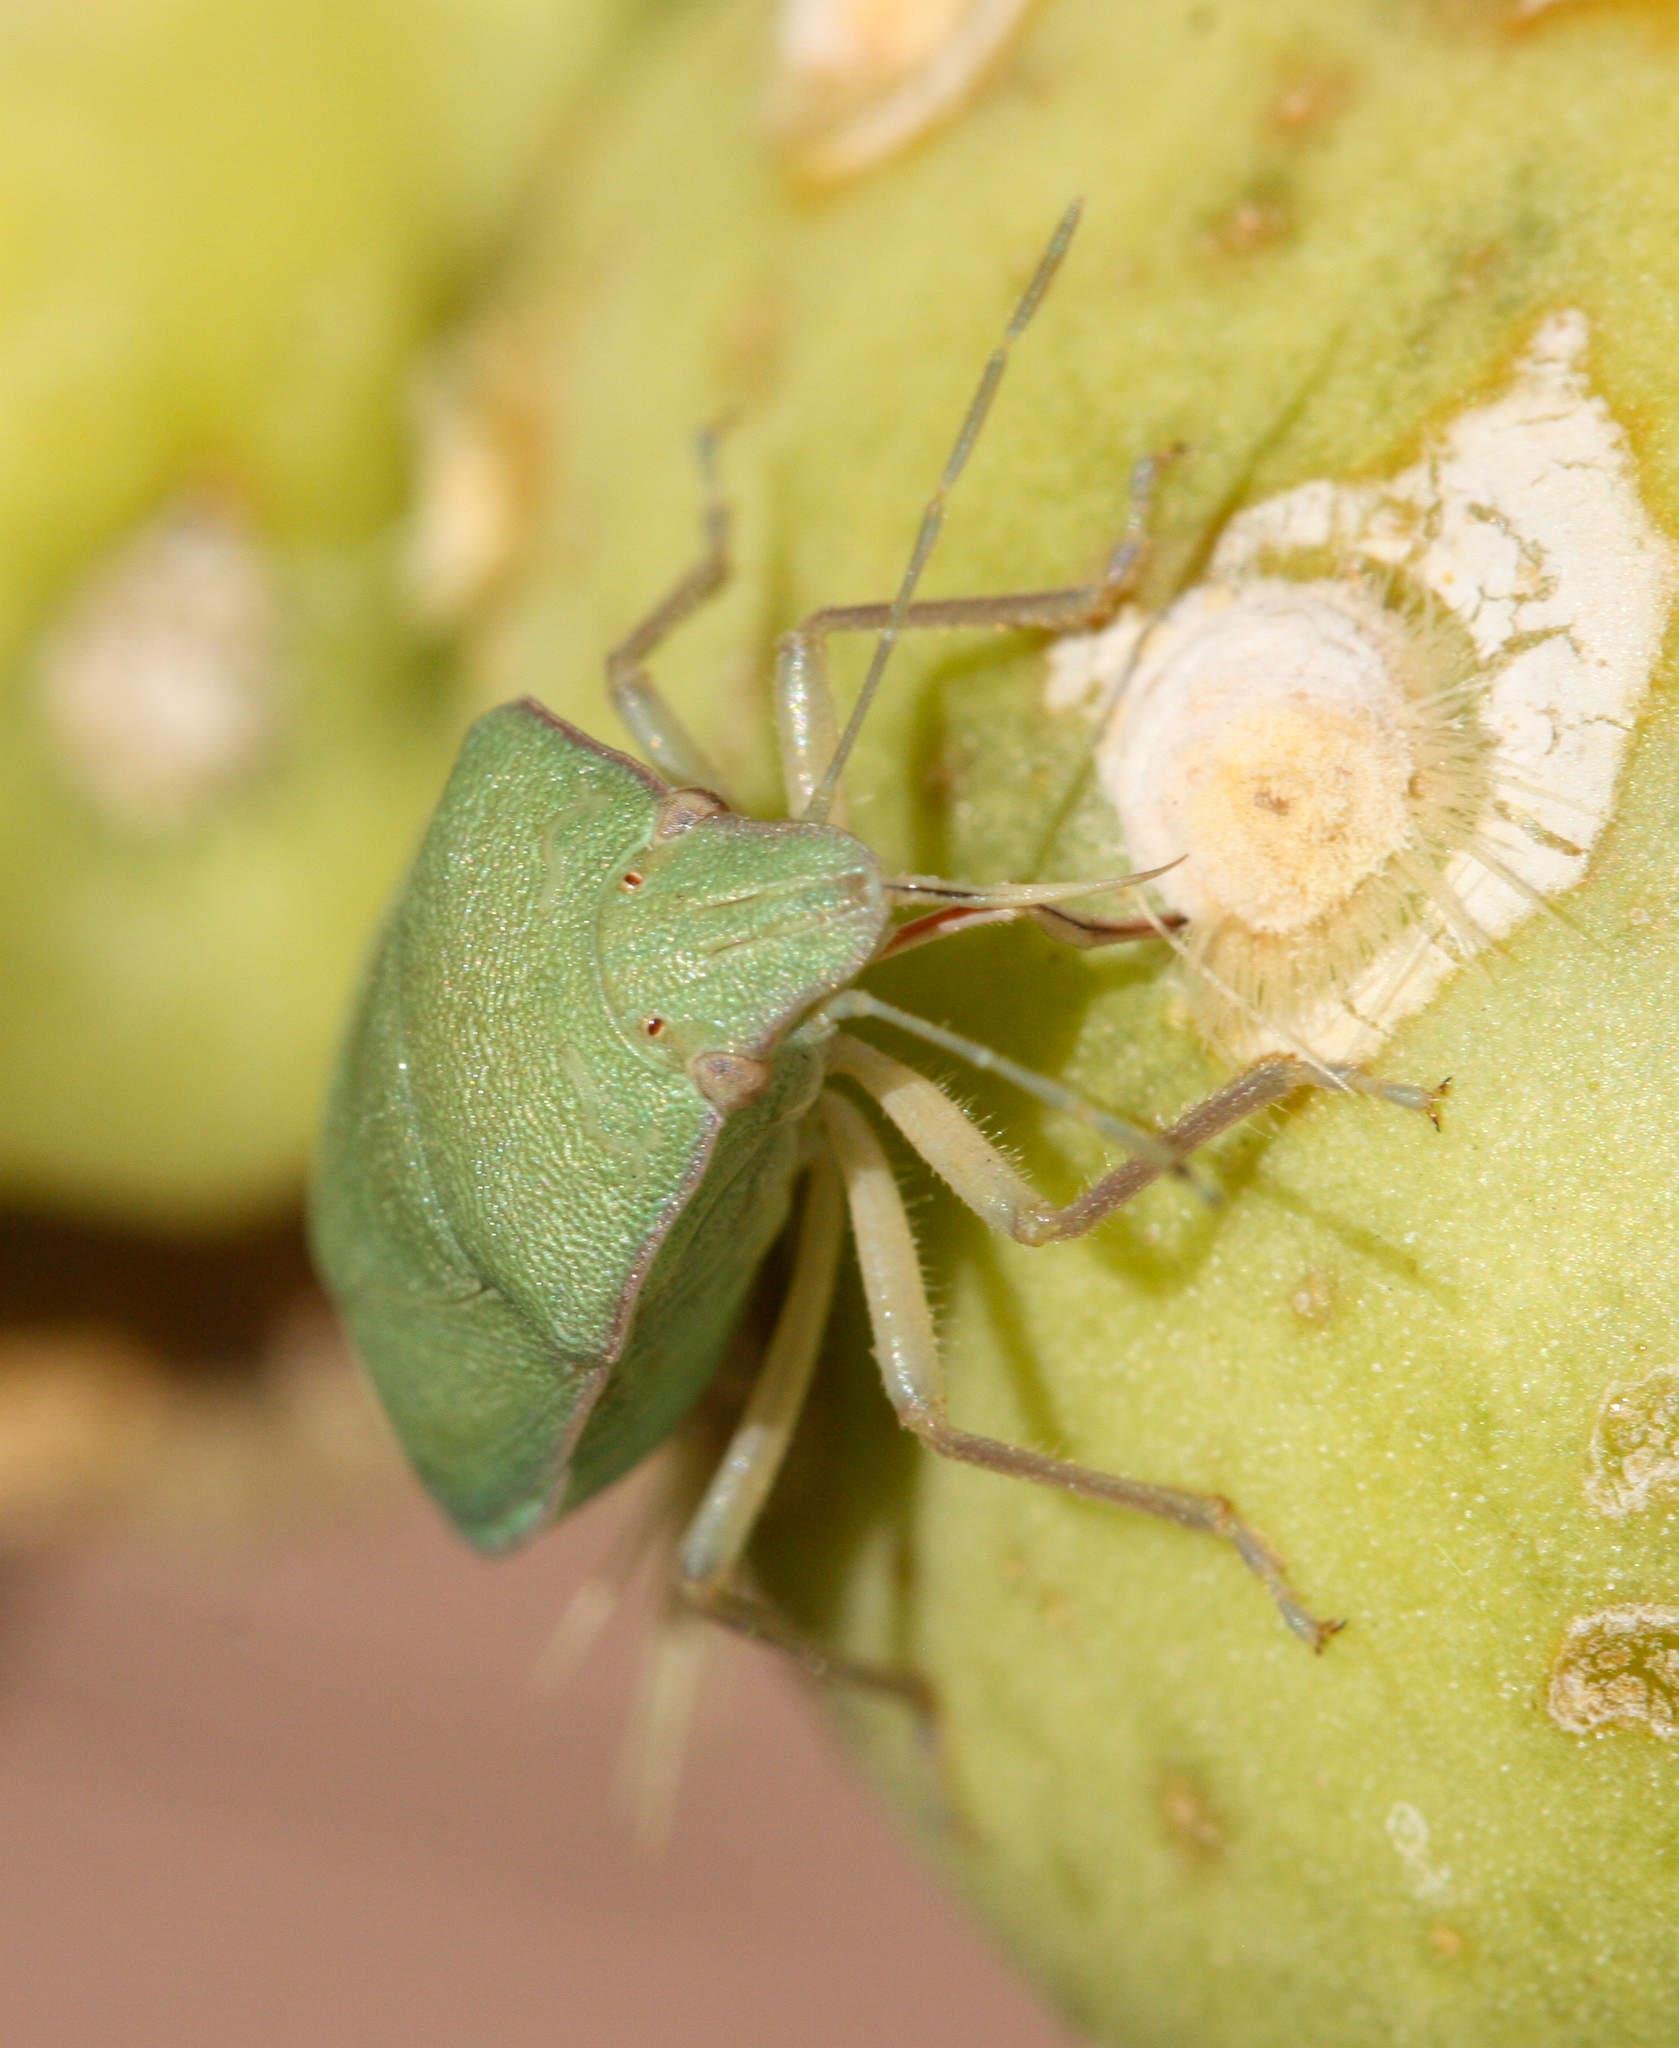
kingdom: Animalia
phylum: Arthropoda
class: Insecta
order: Hemiptera
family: Pentatomidae
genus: Chlorochroa
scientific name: Chlorochroa opuntiae
